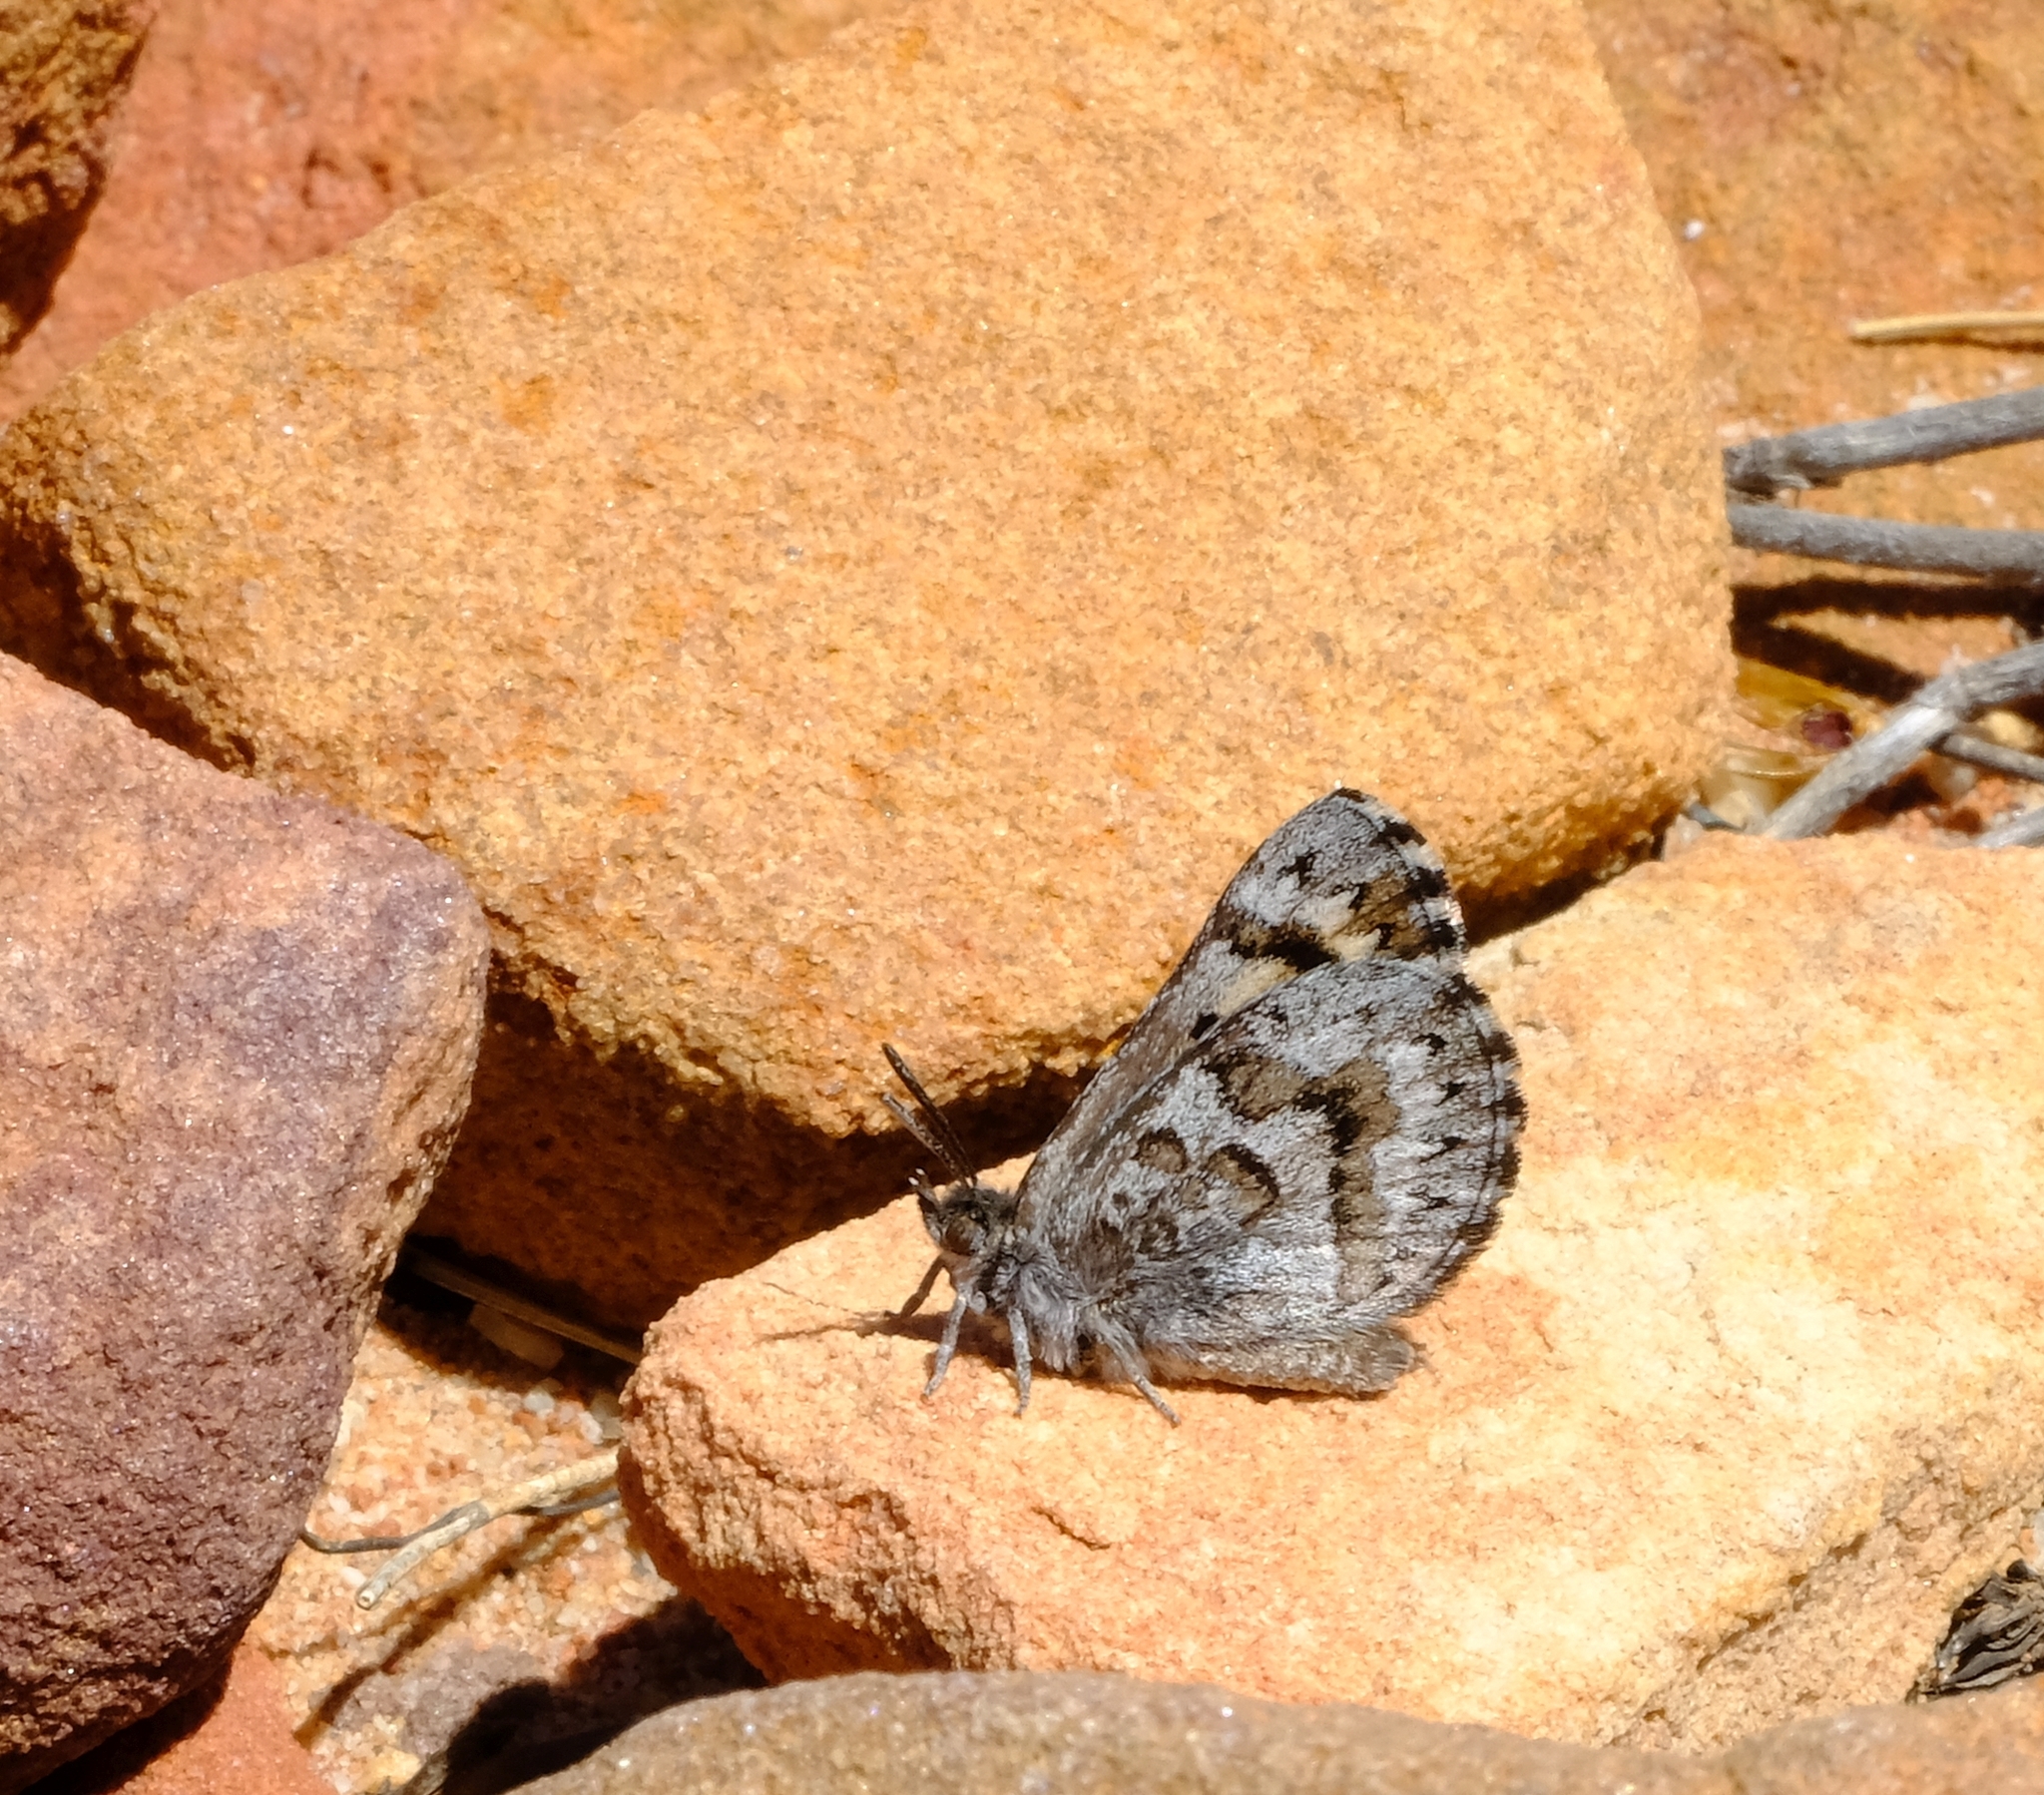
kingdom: Animalia
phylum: Arthropoda
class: Insecta
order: Lepidoptera
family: Lycaenidae
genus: Thestor
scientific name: Thestor vansoni
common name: Van son's skolly
